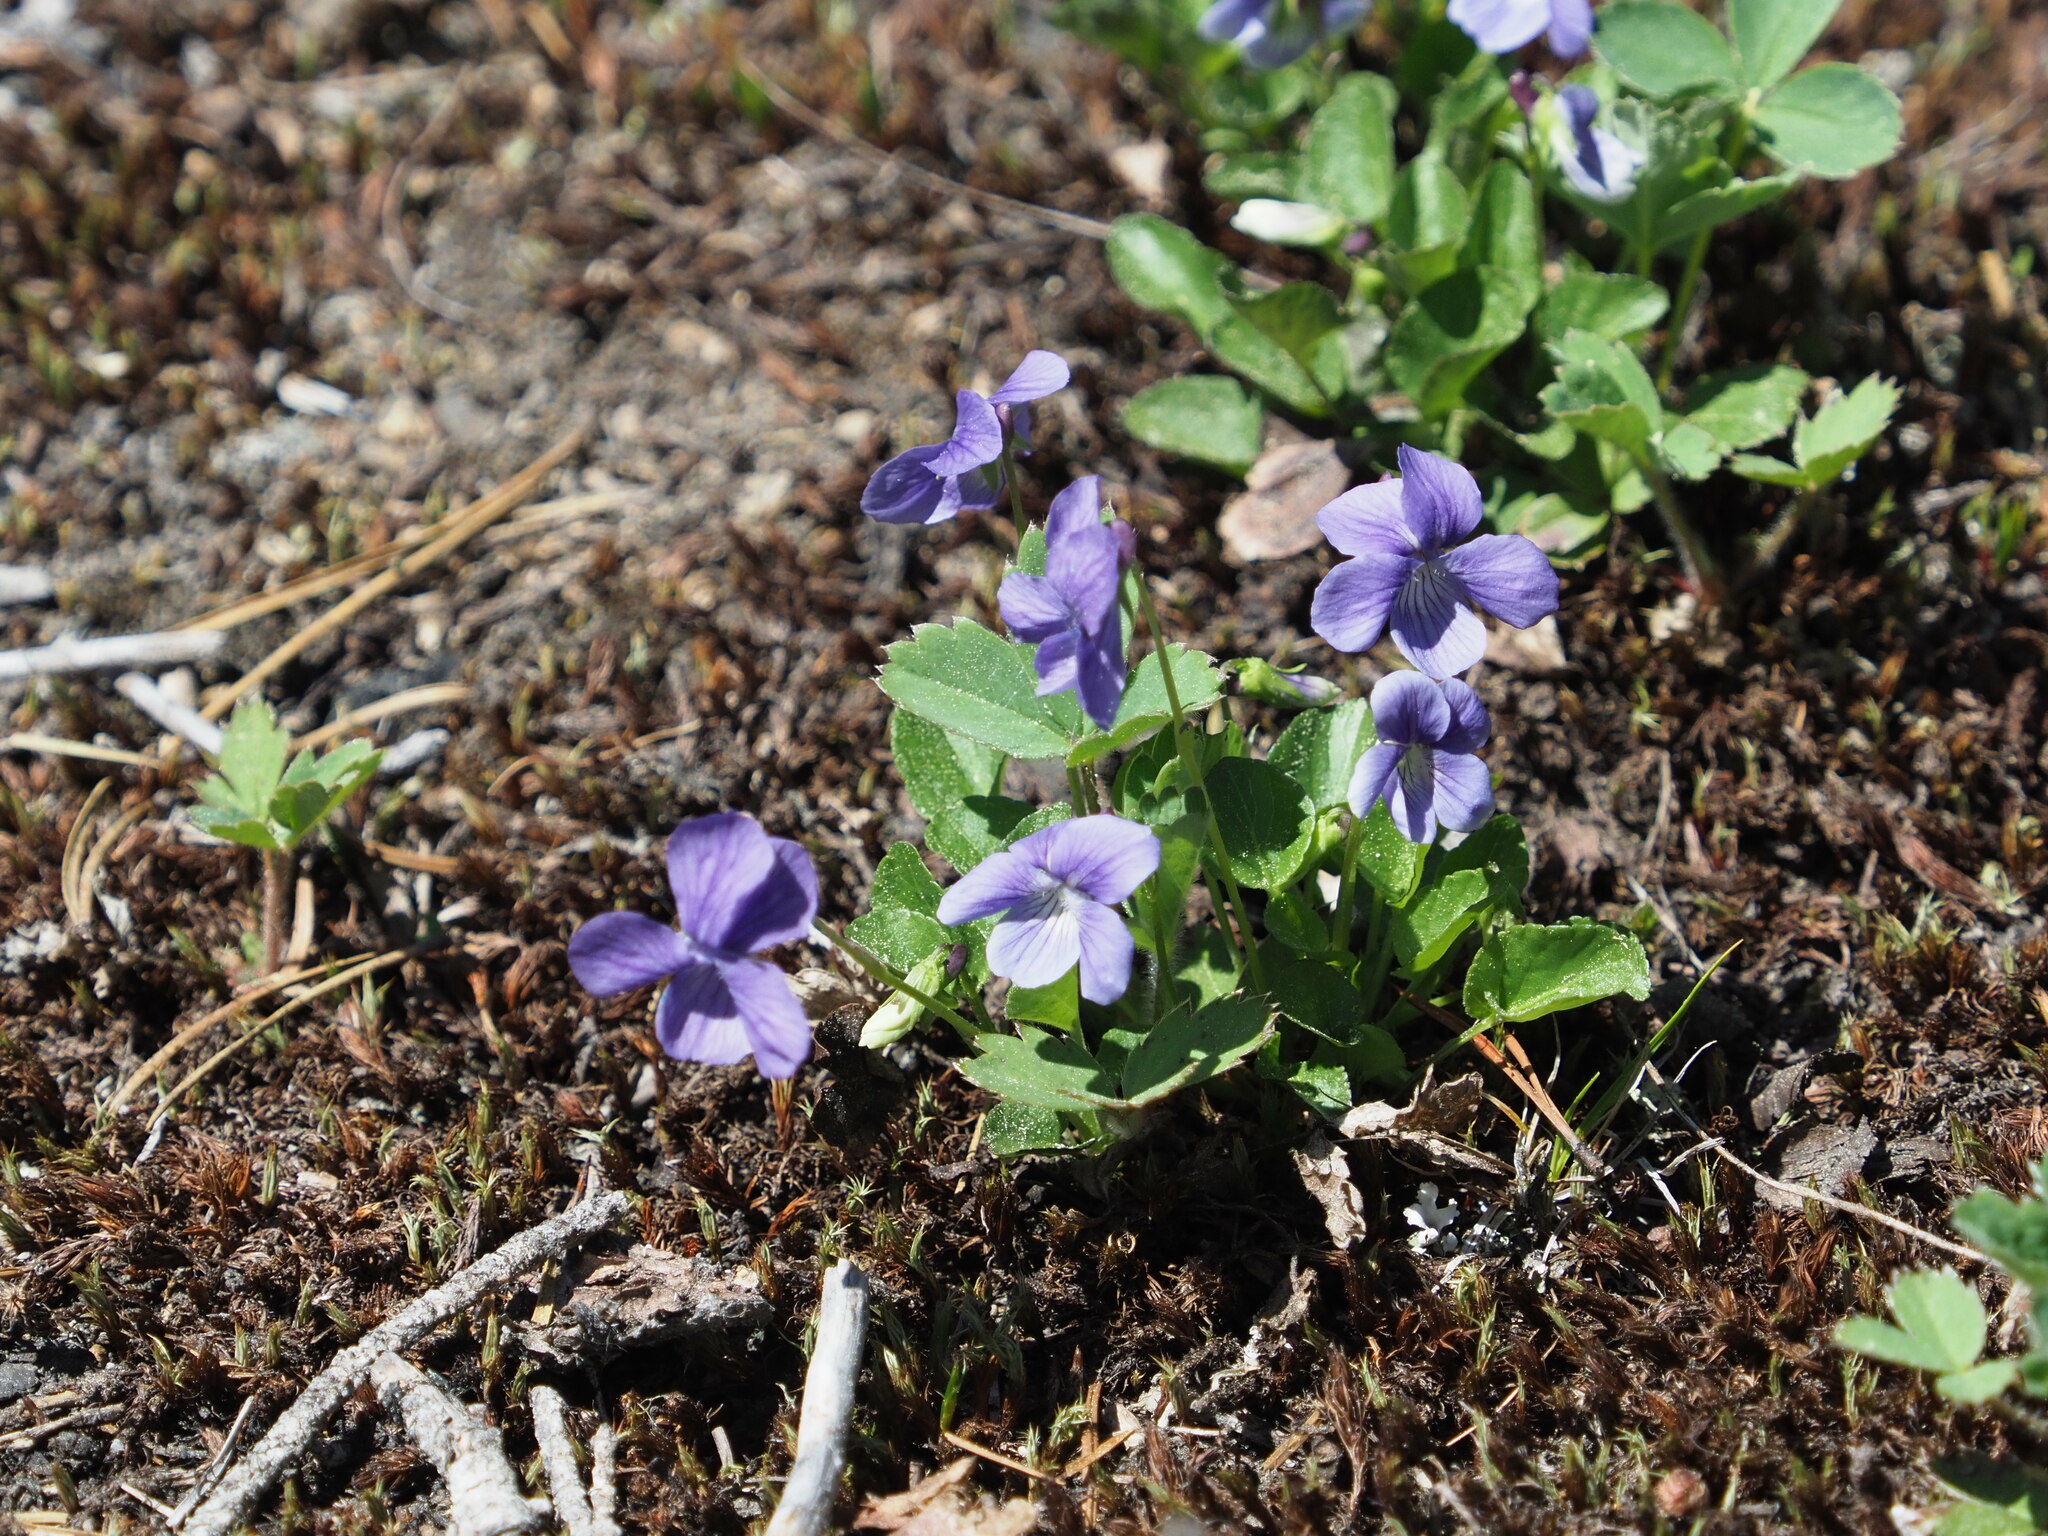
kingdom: Plantae
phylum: Tracheophyta
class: Magnoliopsida
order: Malpighiales
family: Violaceae
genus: Viola
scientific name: Viola adunca
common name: Sand violet
